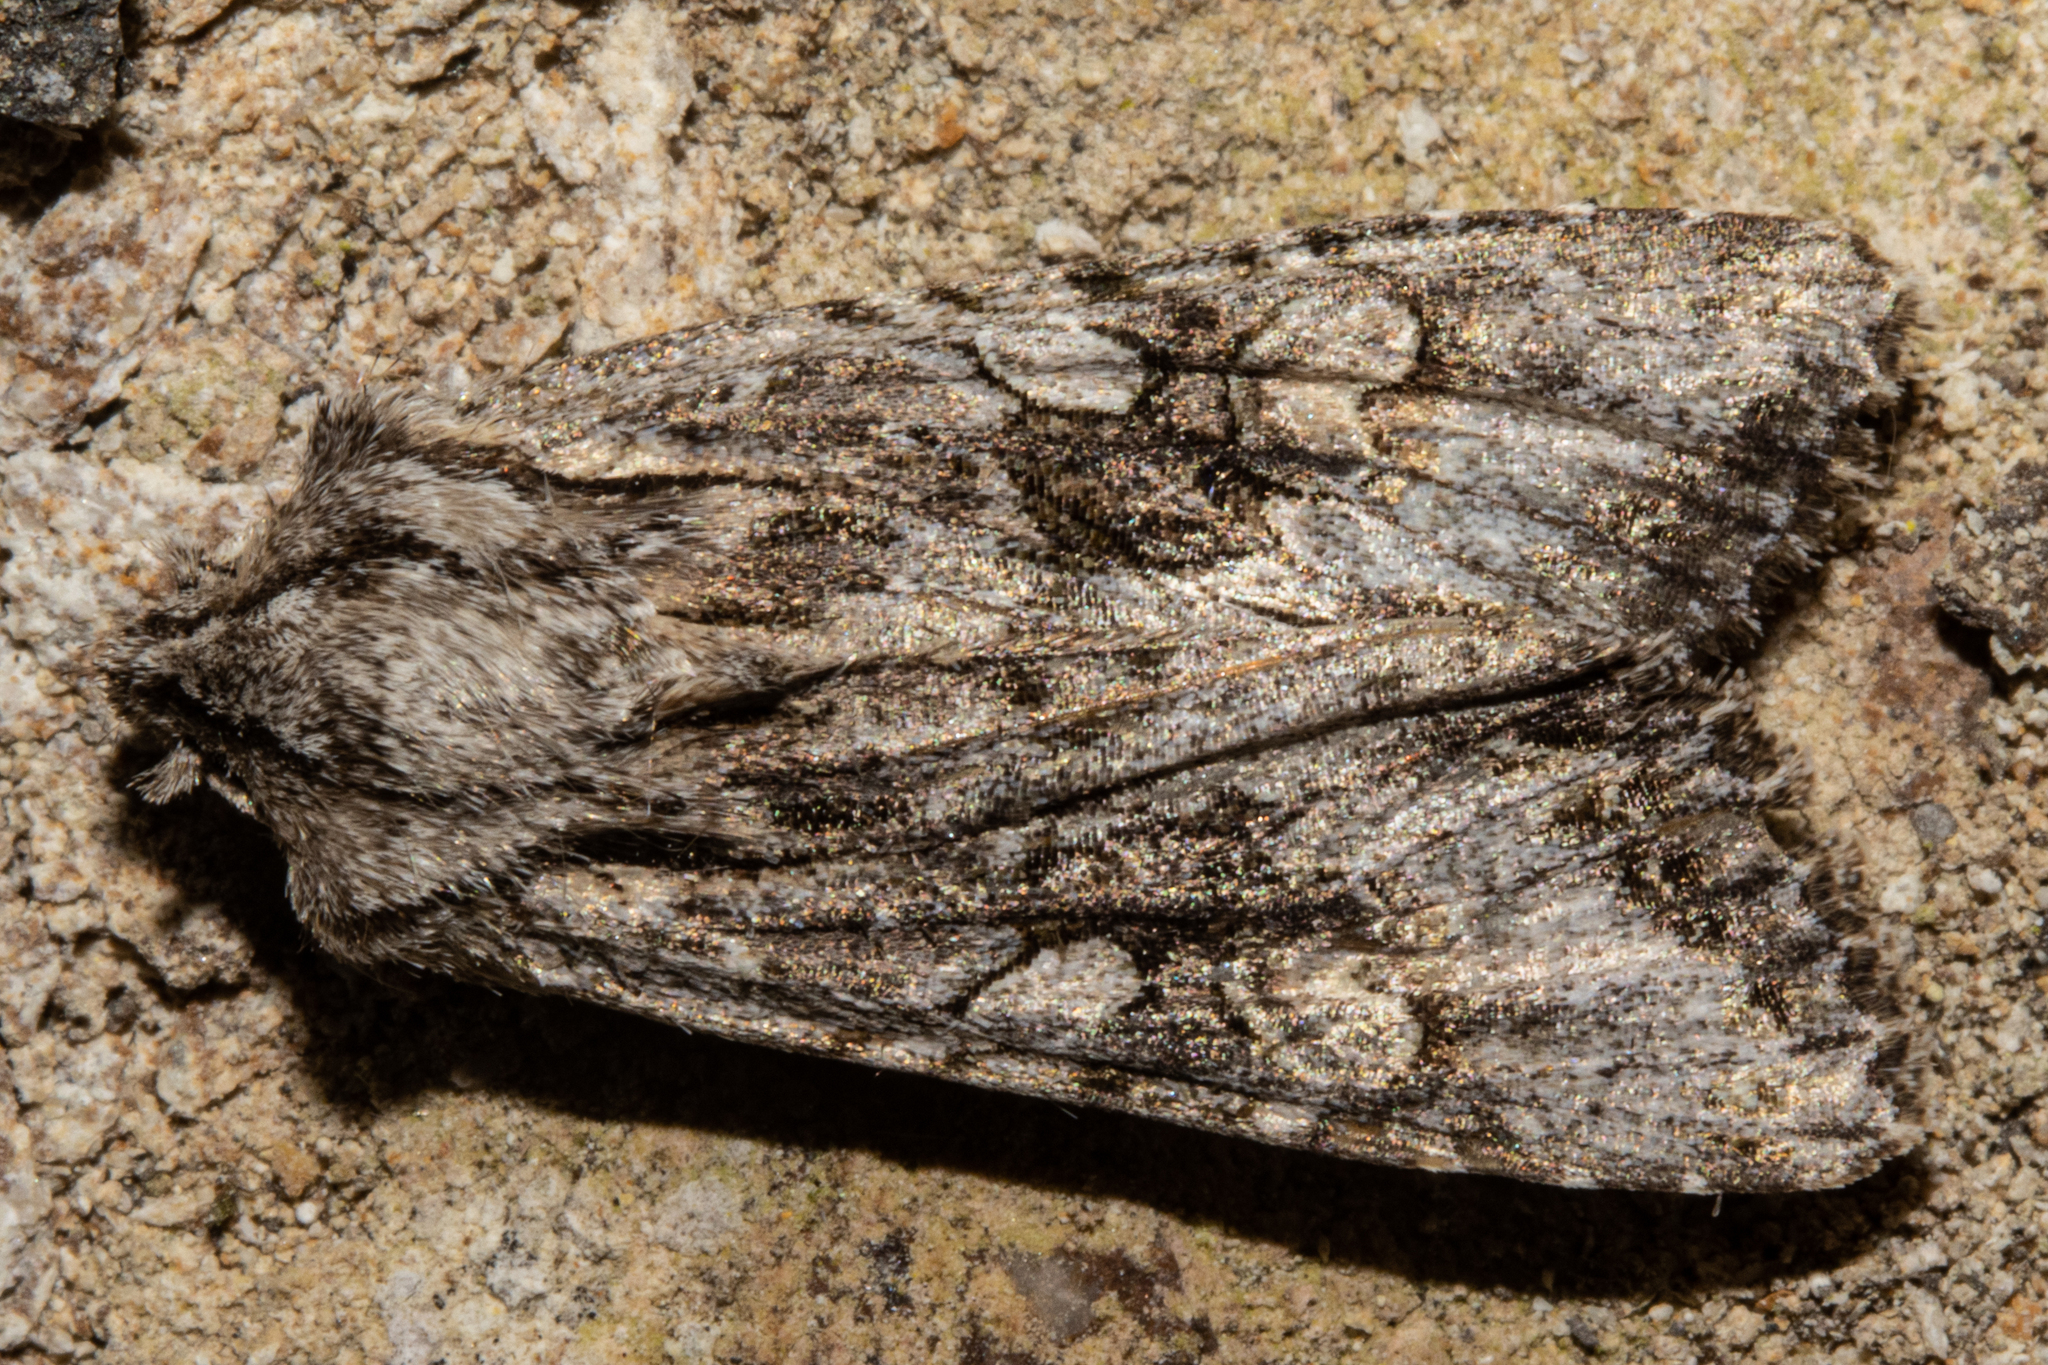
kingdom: Animalia
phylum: Arthropoda
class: Insecta
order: Lepidoptera
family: Noctuidae
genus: Ichneutica
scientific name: Ichneutica mutans
